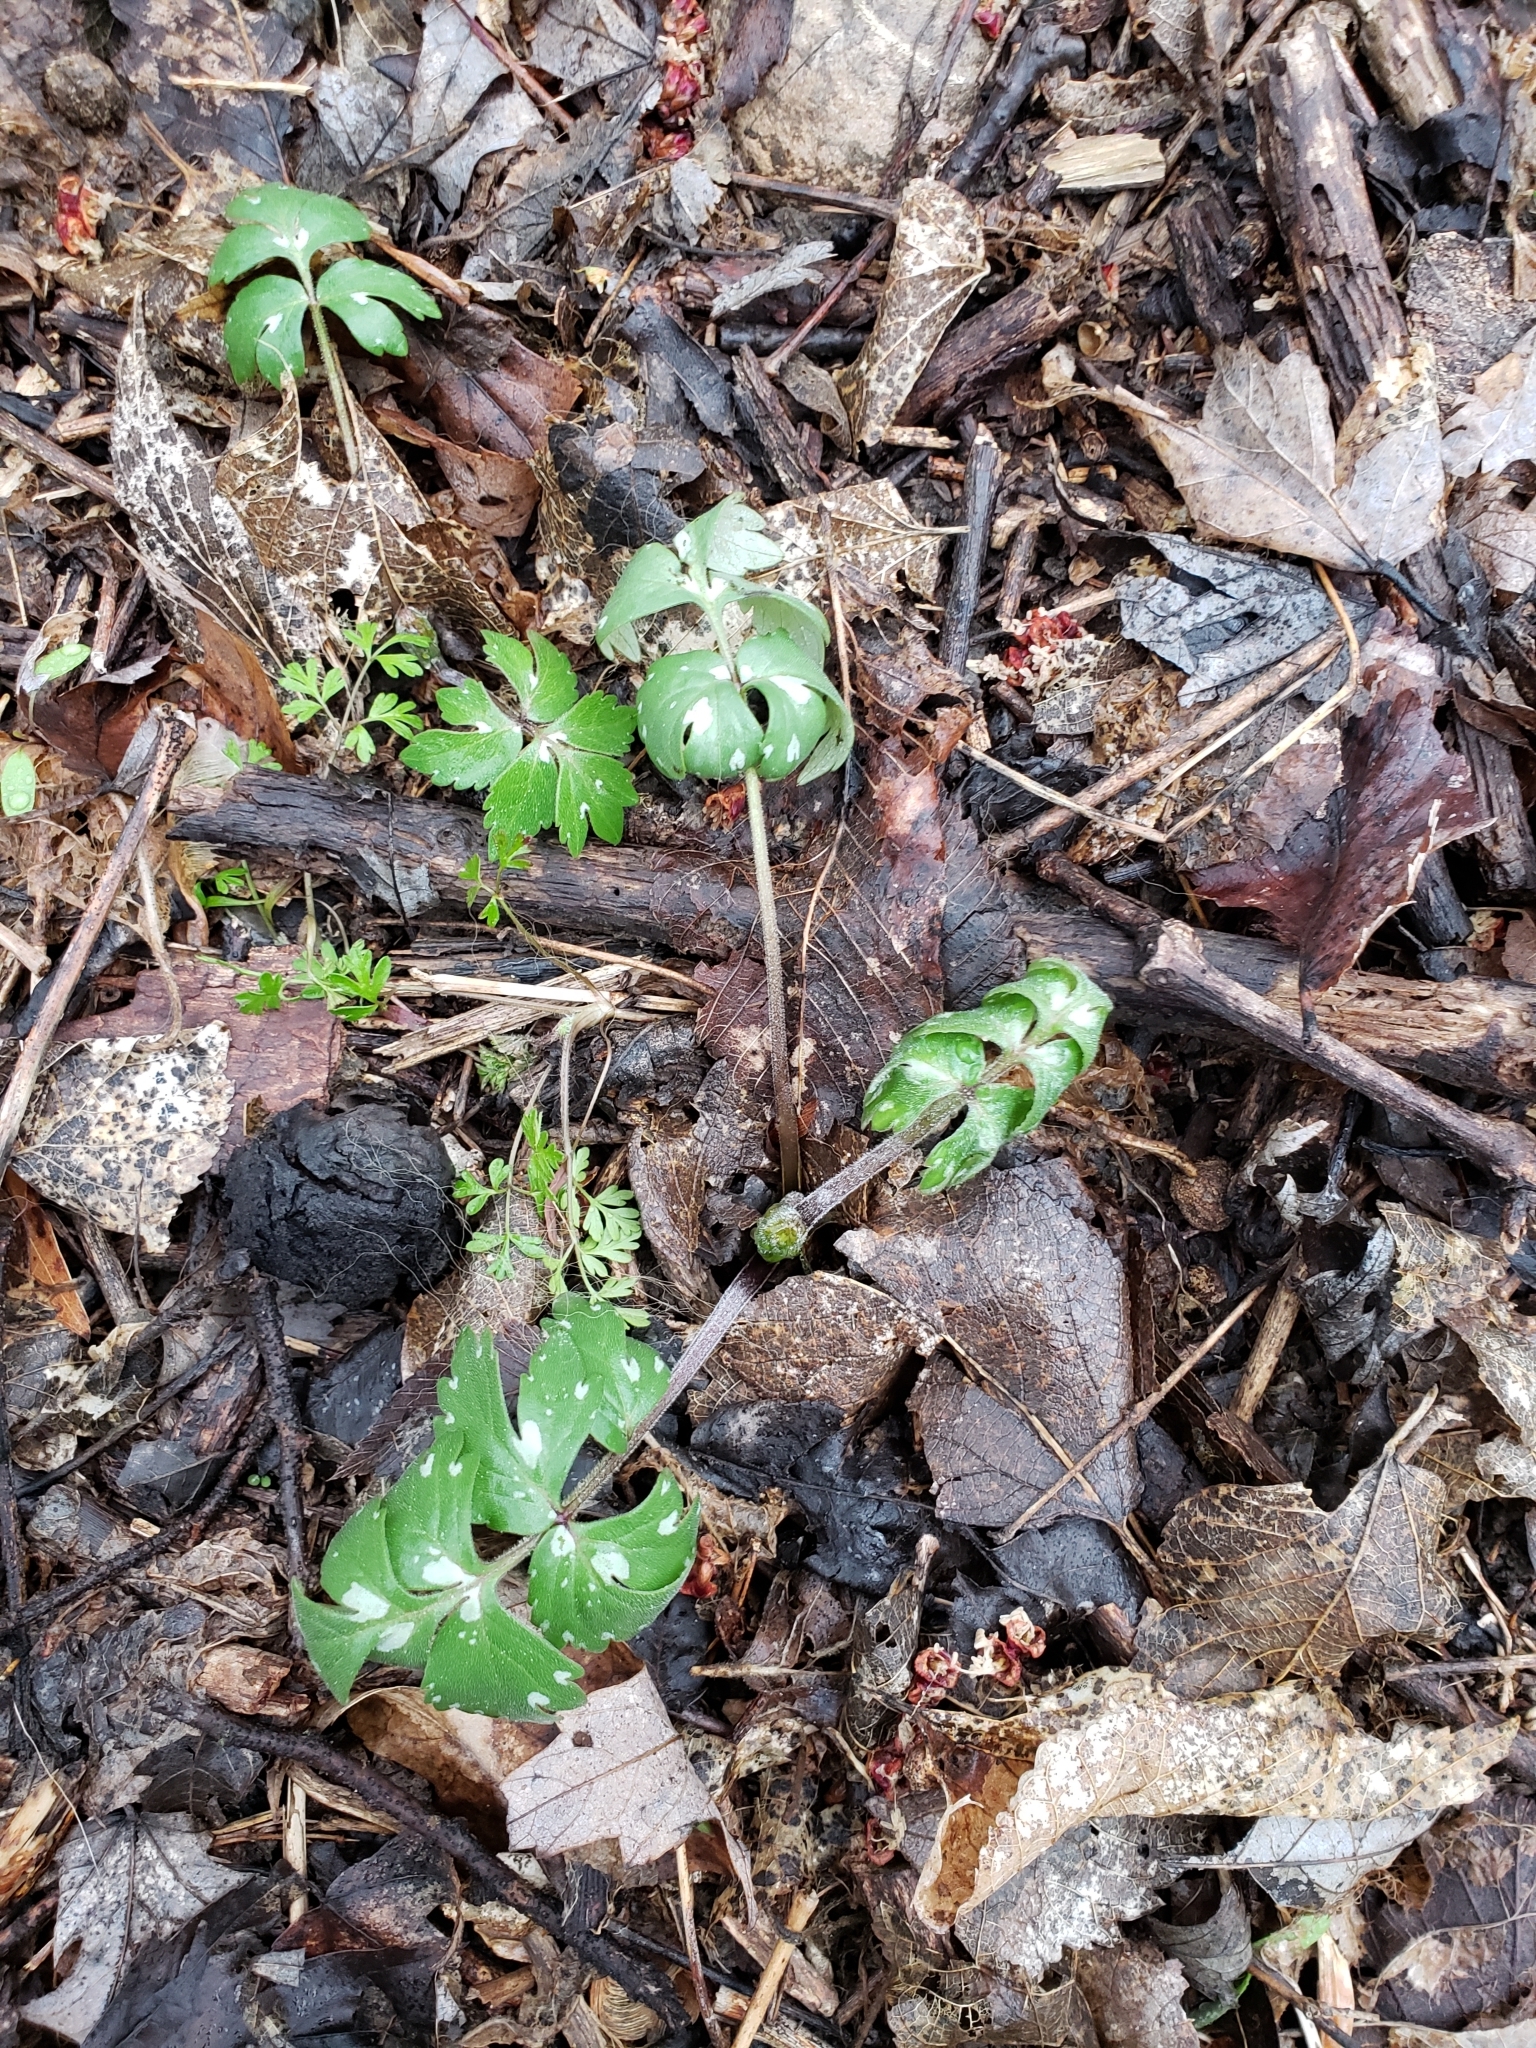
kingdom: Plantae
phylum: Tracheophyta
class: Magnoliopsida
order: Boraginales
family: Hydrophyllaceae
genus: Hydrophyllum
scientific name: Hydrophyllum virginianum
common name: Virginia waterleaf
